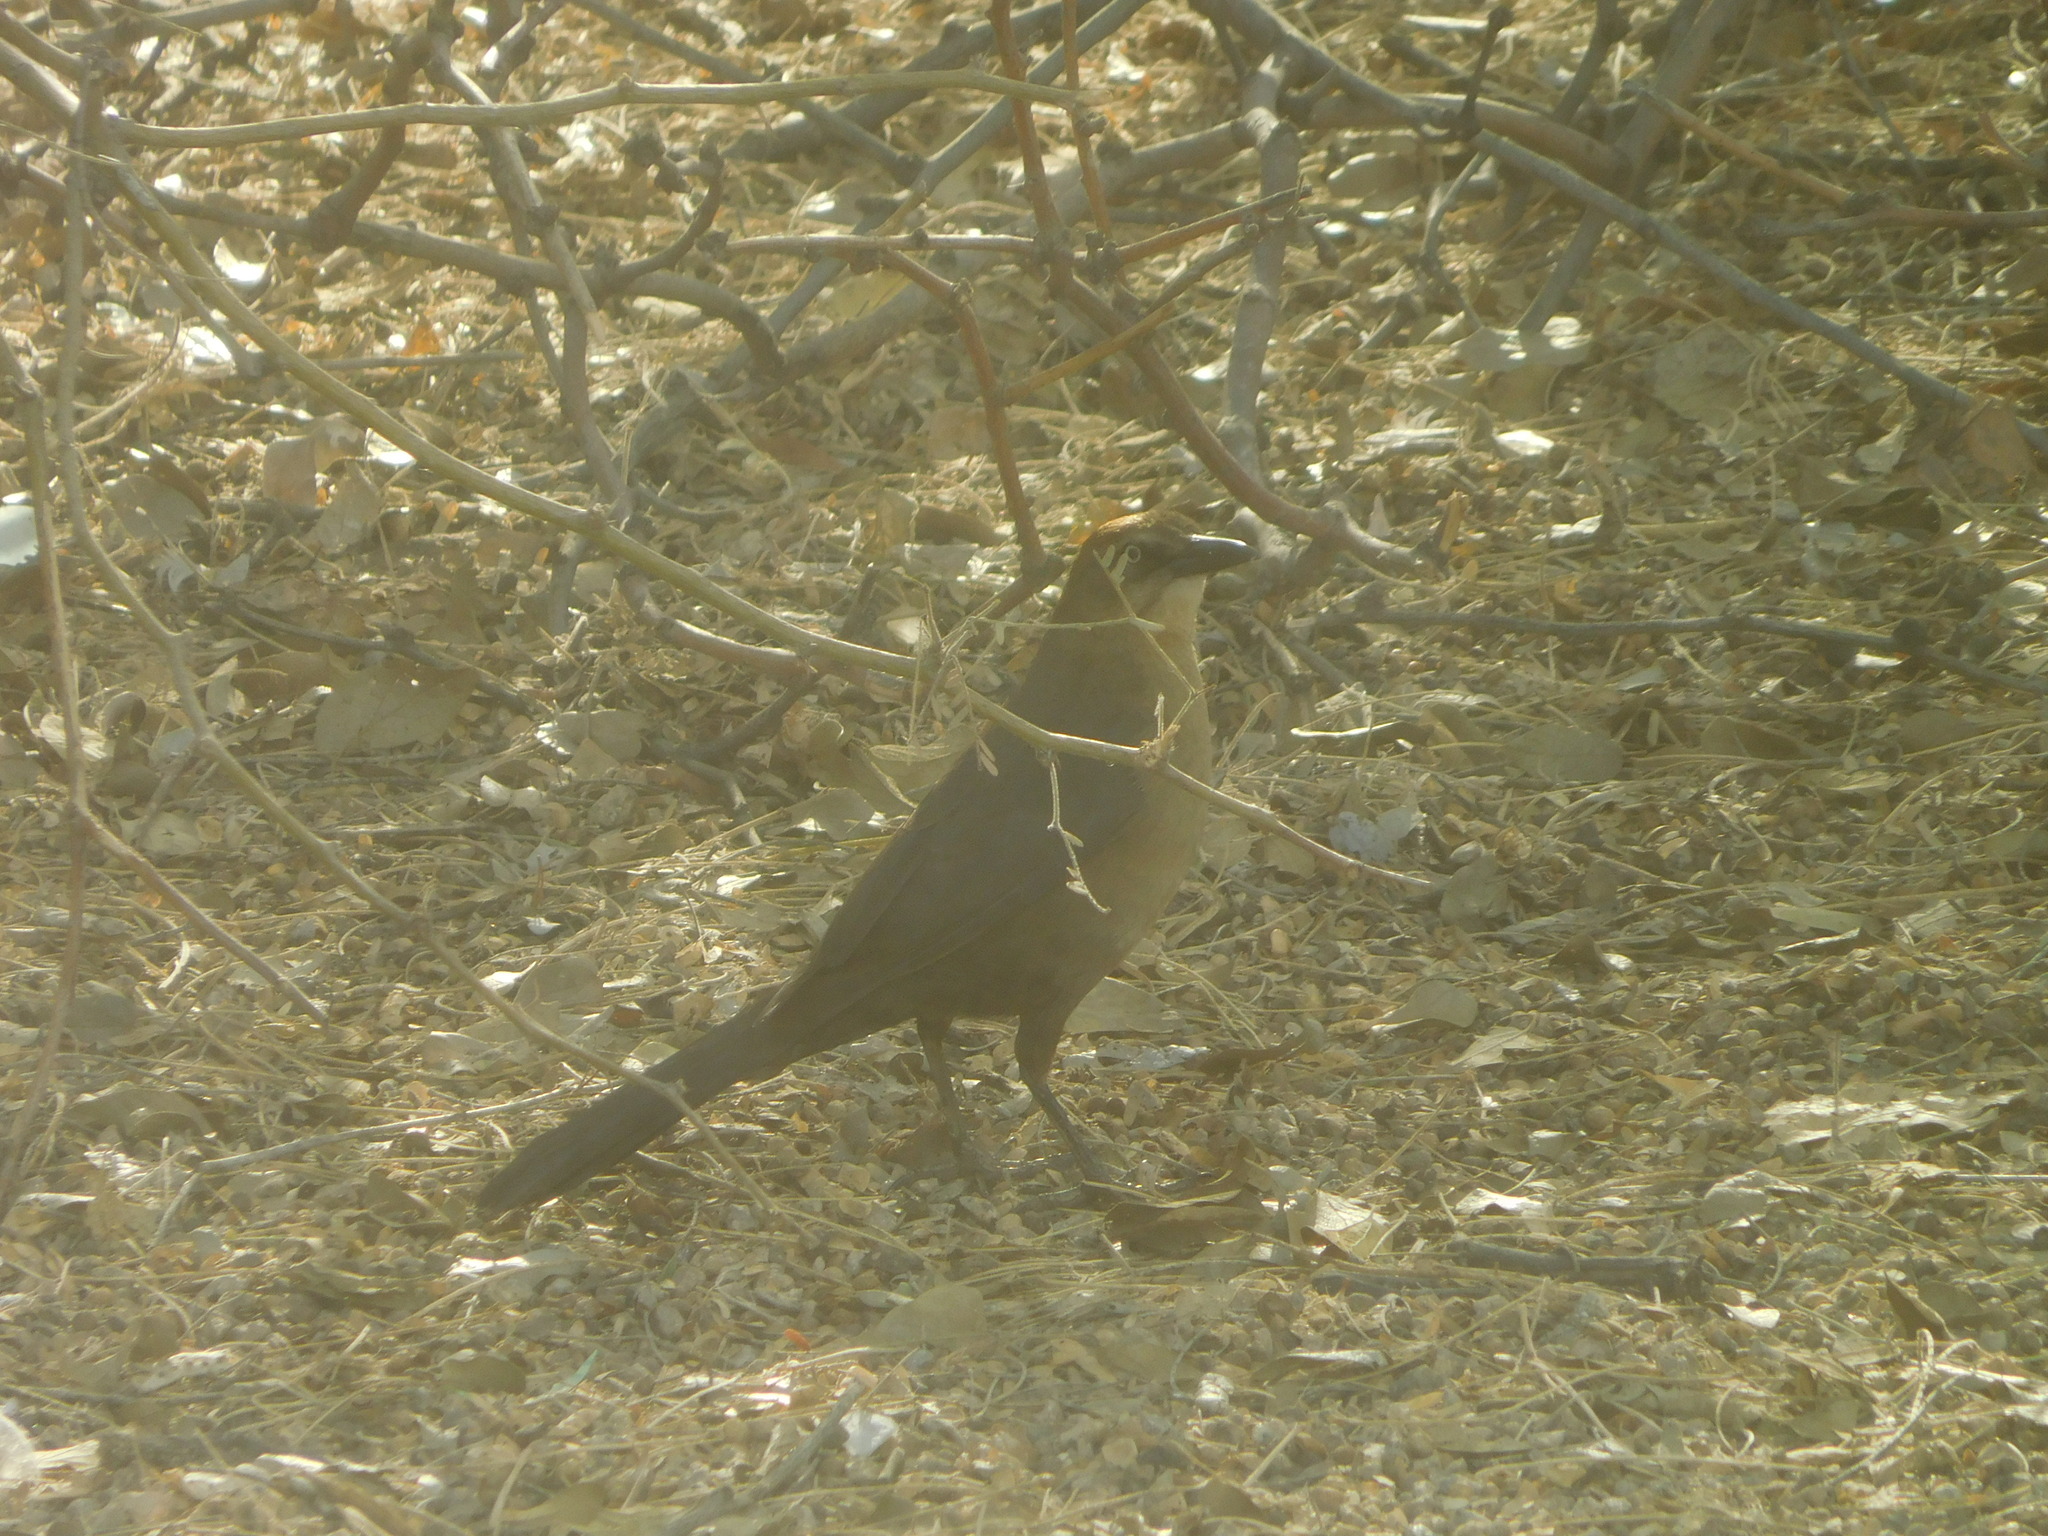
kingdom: Animalia
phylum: Chordata
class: Aves
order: Passeriformes
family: Icteridae
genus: Quiscalus
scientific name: Quiscalus mexicanus
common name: Great-tailed grackle
